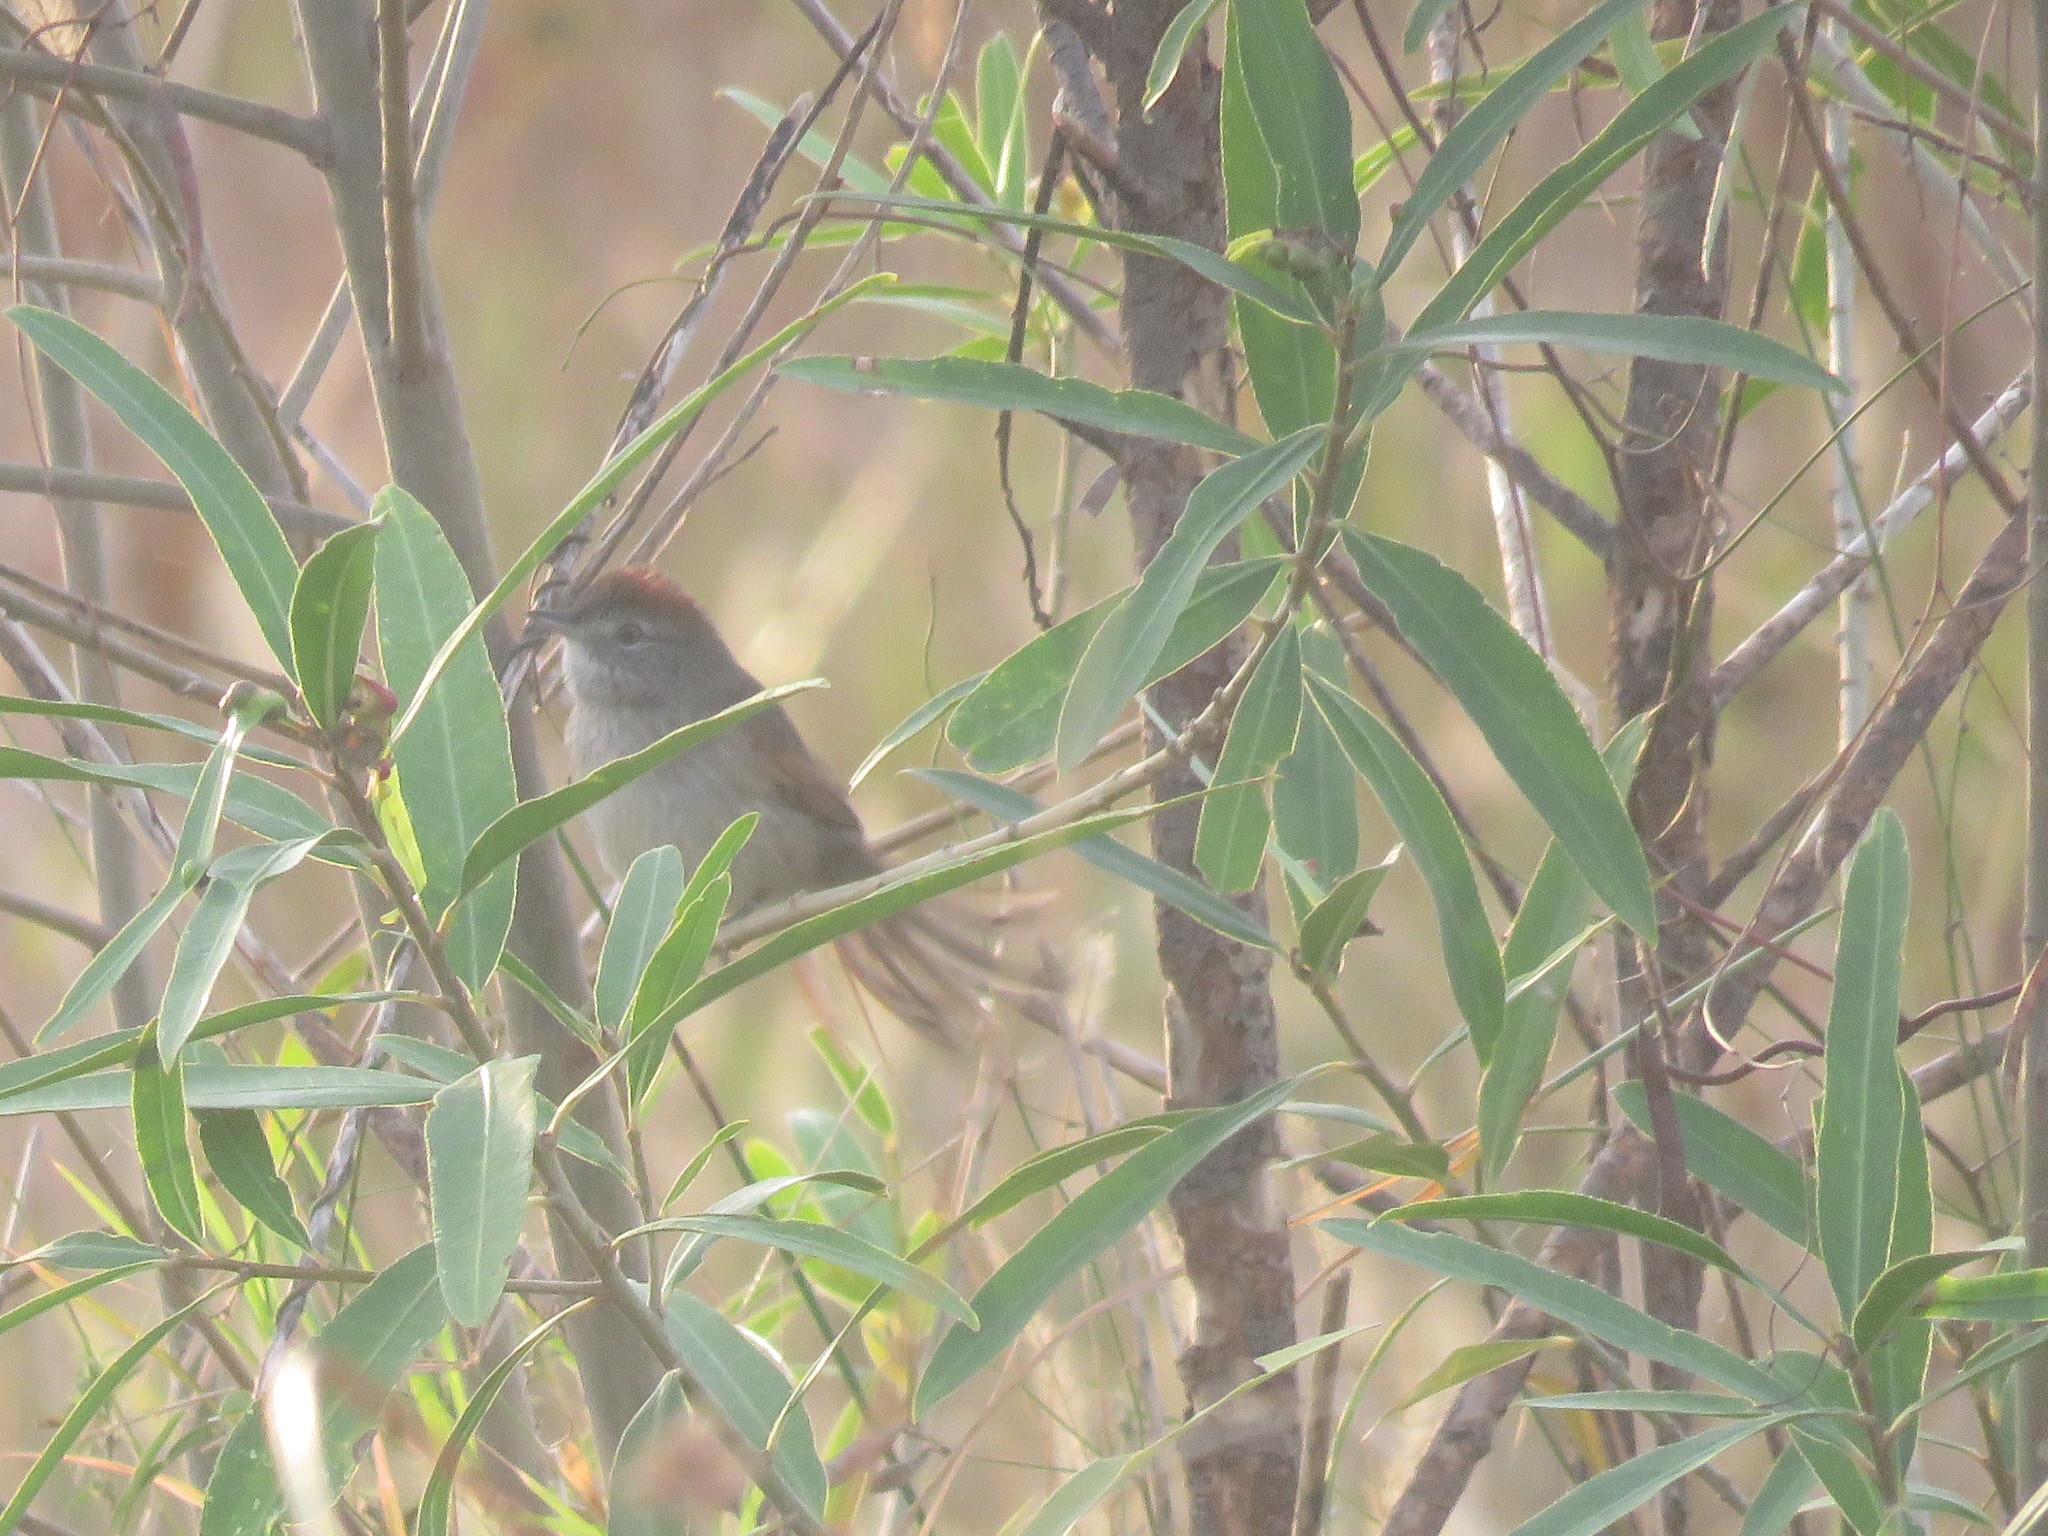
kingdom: Animalia
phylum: Chordata
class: Aves
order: Passeriformes
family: Furnariidae
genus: Synallaxis
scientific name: Synallaxis albescens
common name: Pale-breasted spinetail
